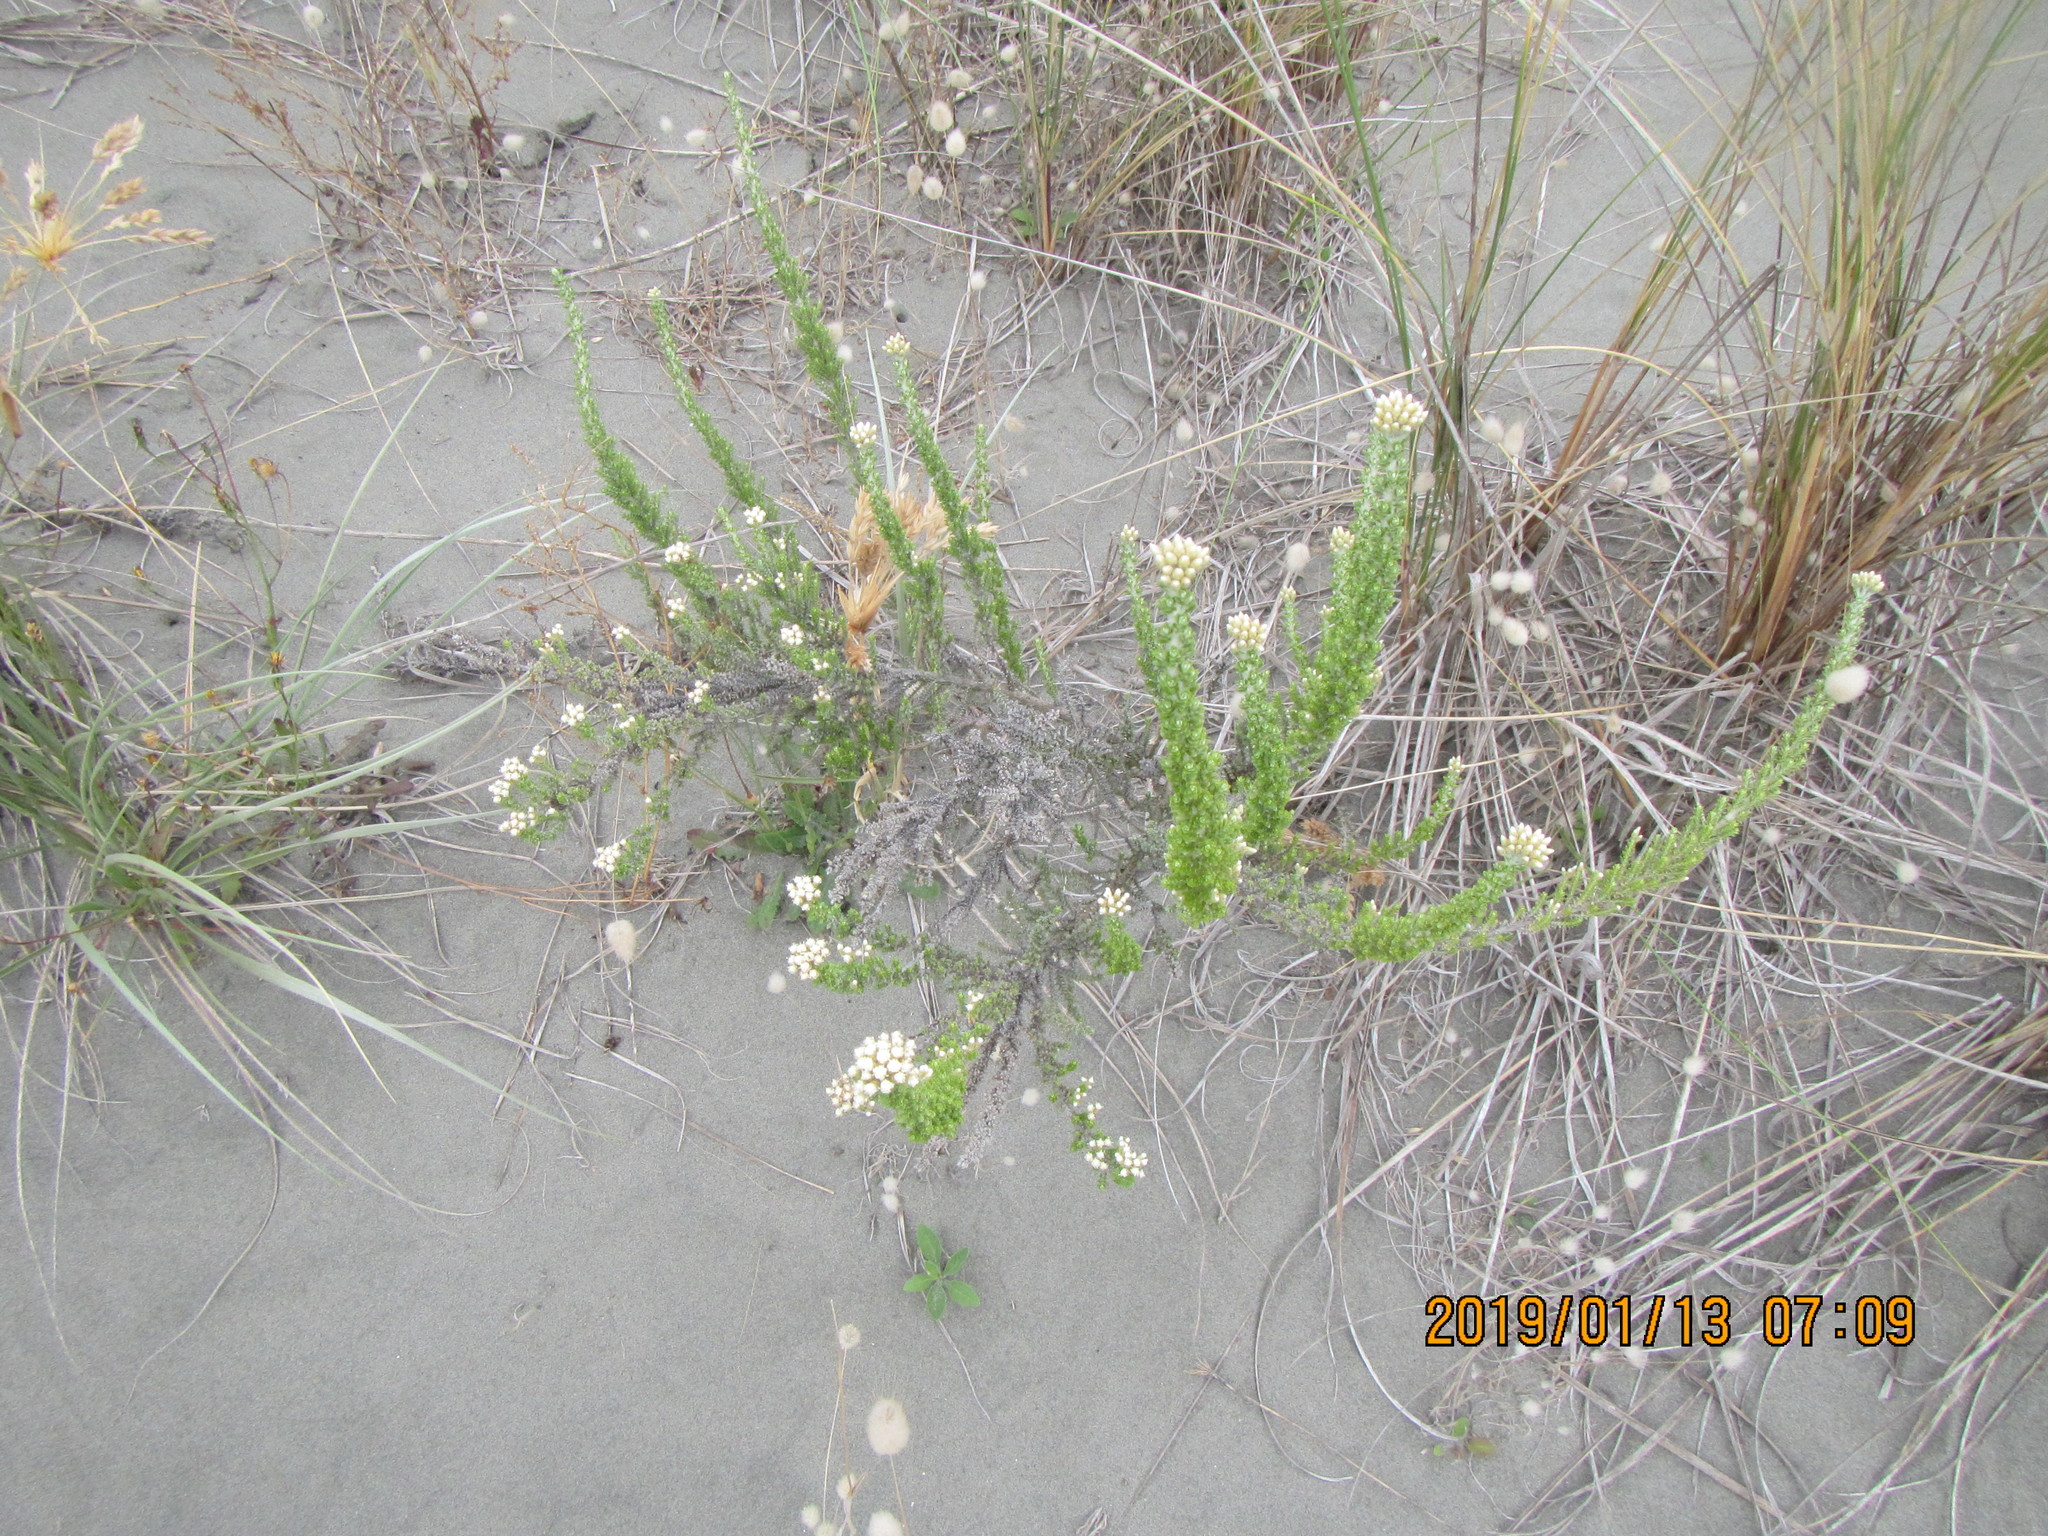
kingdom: Plantae
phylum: Tracheophyta
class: Magnoliopsida
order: Asterales
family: Asteraceae
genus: Ozothamnus
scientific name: Ozothamnus leptophyllus
